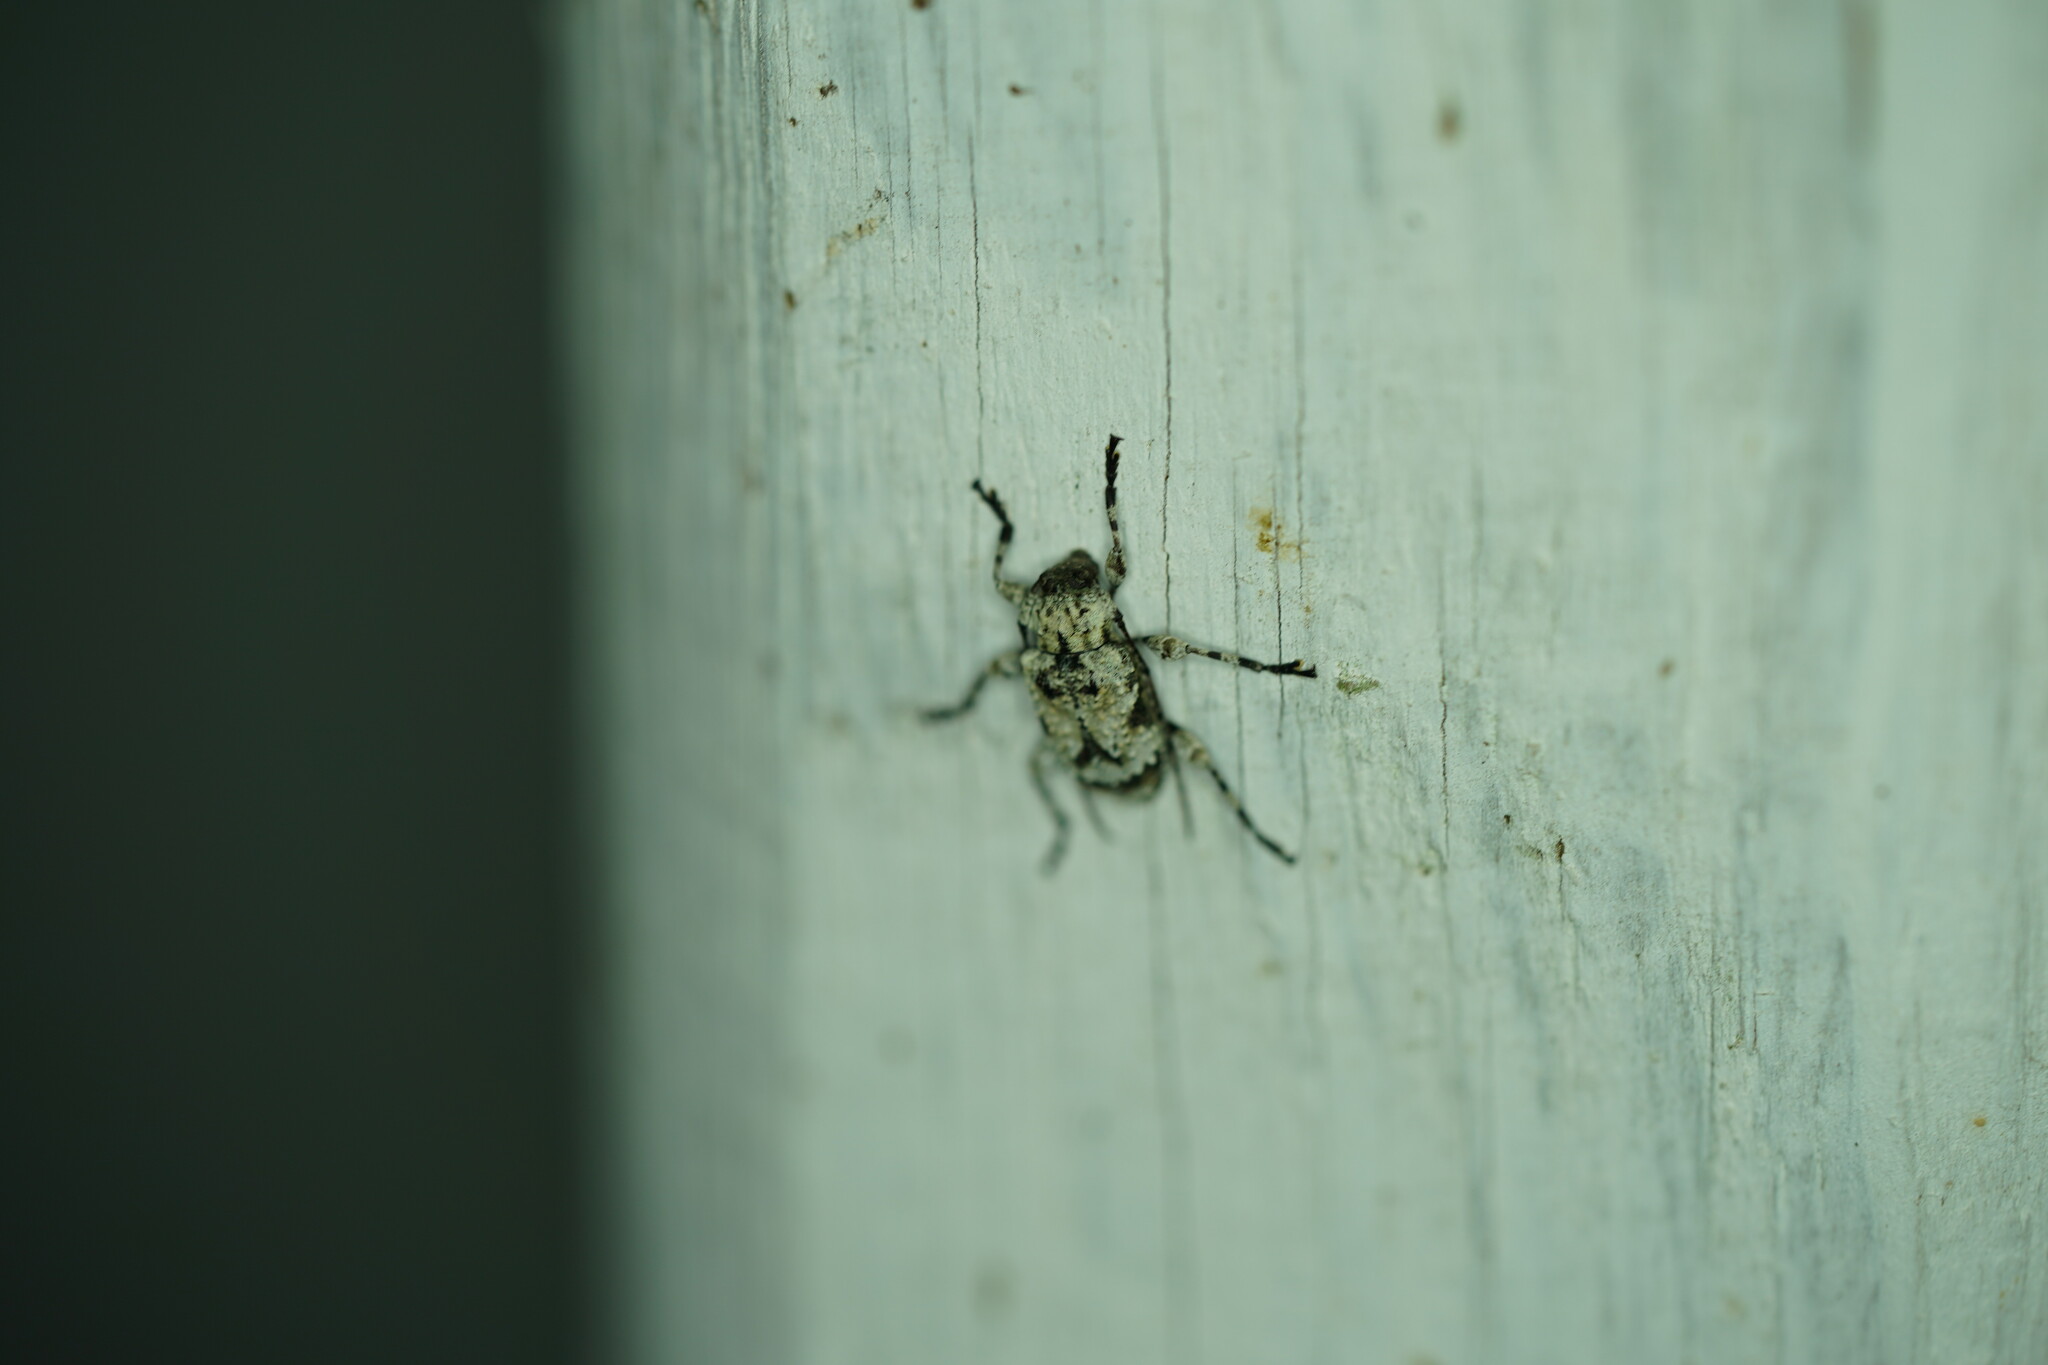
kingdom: Animalia
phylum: Arthropoda
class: Insecta
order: Coleoptera
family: Cerambycidae
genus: Leptostylus
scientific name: Leptostylus asperatus
